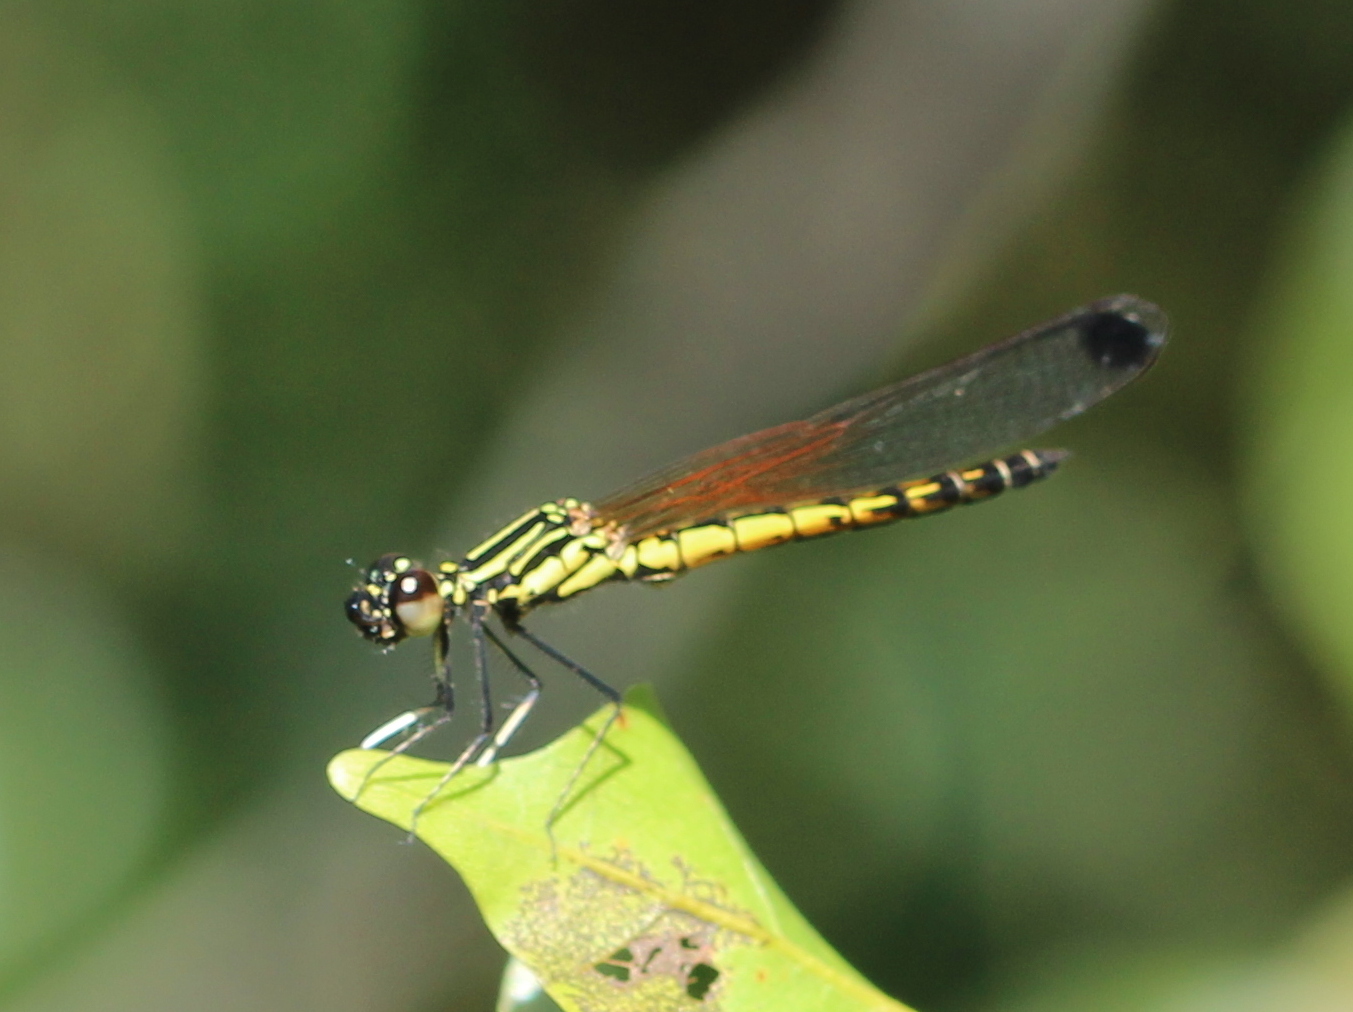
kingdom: Animalia
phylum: Arthropoda
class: Insecta
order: Odonata
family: Chlorocyphidae
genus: Libellago
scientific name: Libellago indica
